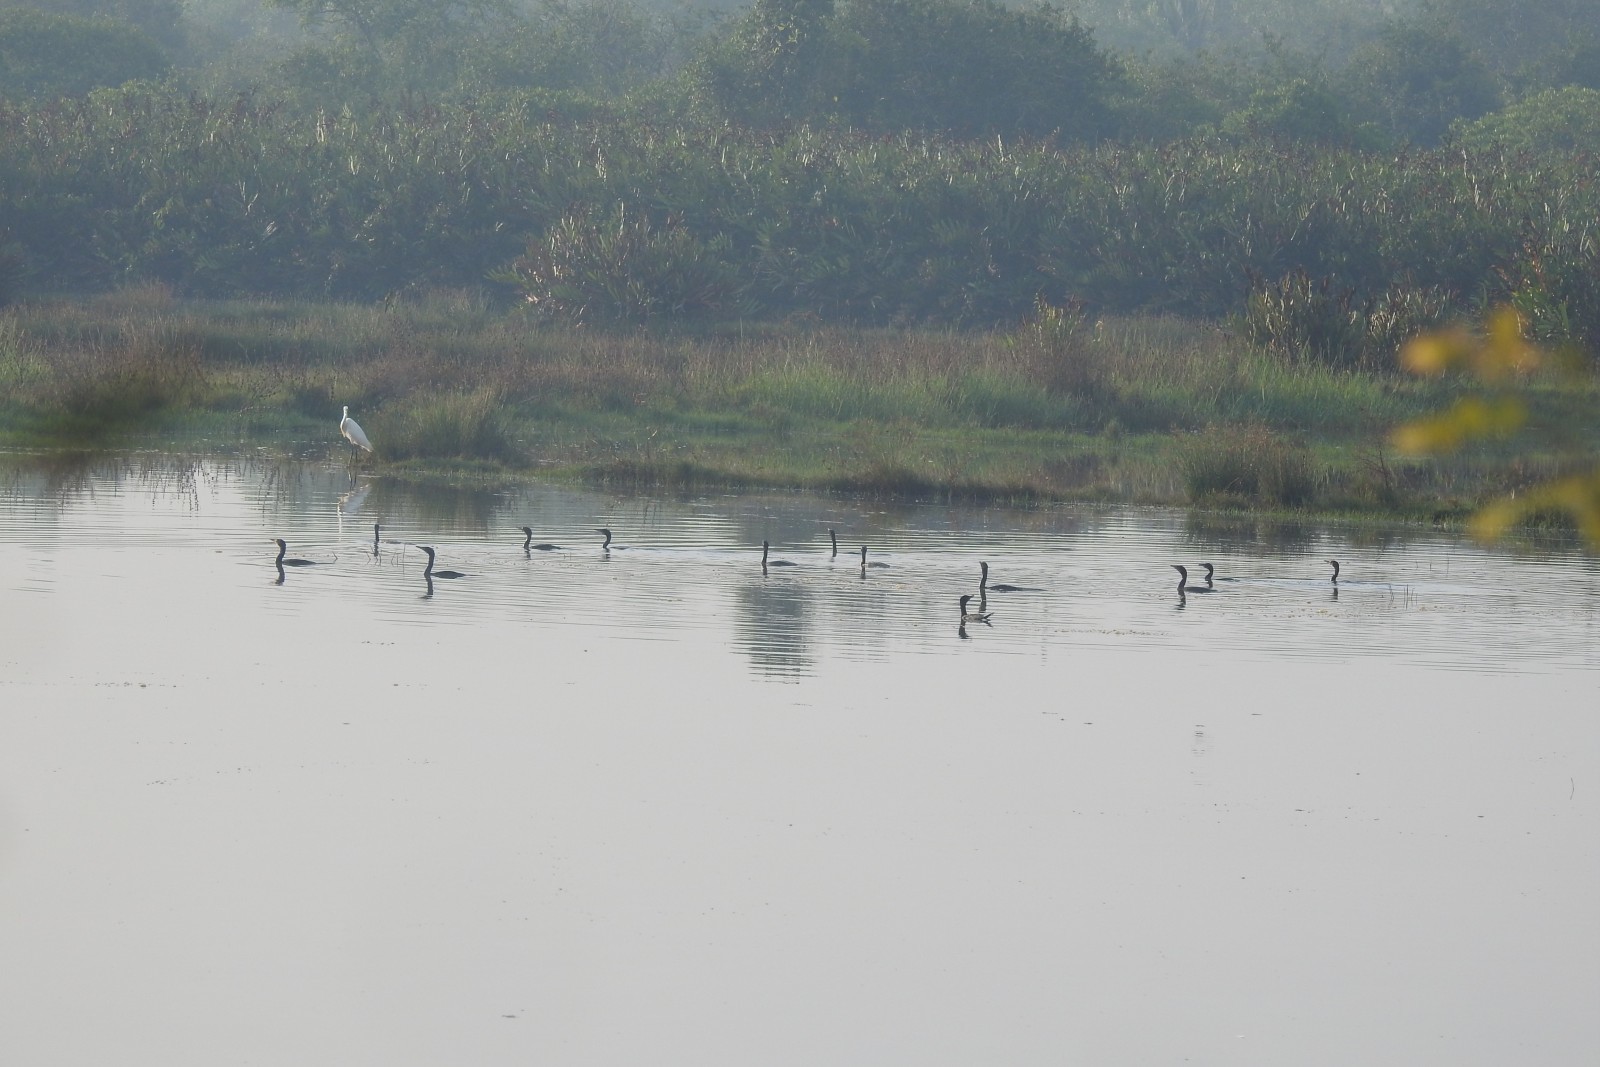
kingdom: Animalia
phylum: Chordata
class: Aves
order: Suliformes
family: Phalacrocoracidae
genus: Microcarbo
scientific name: Microcarbo niger
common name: Little cormorant
